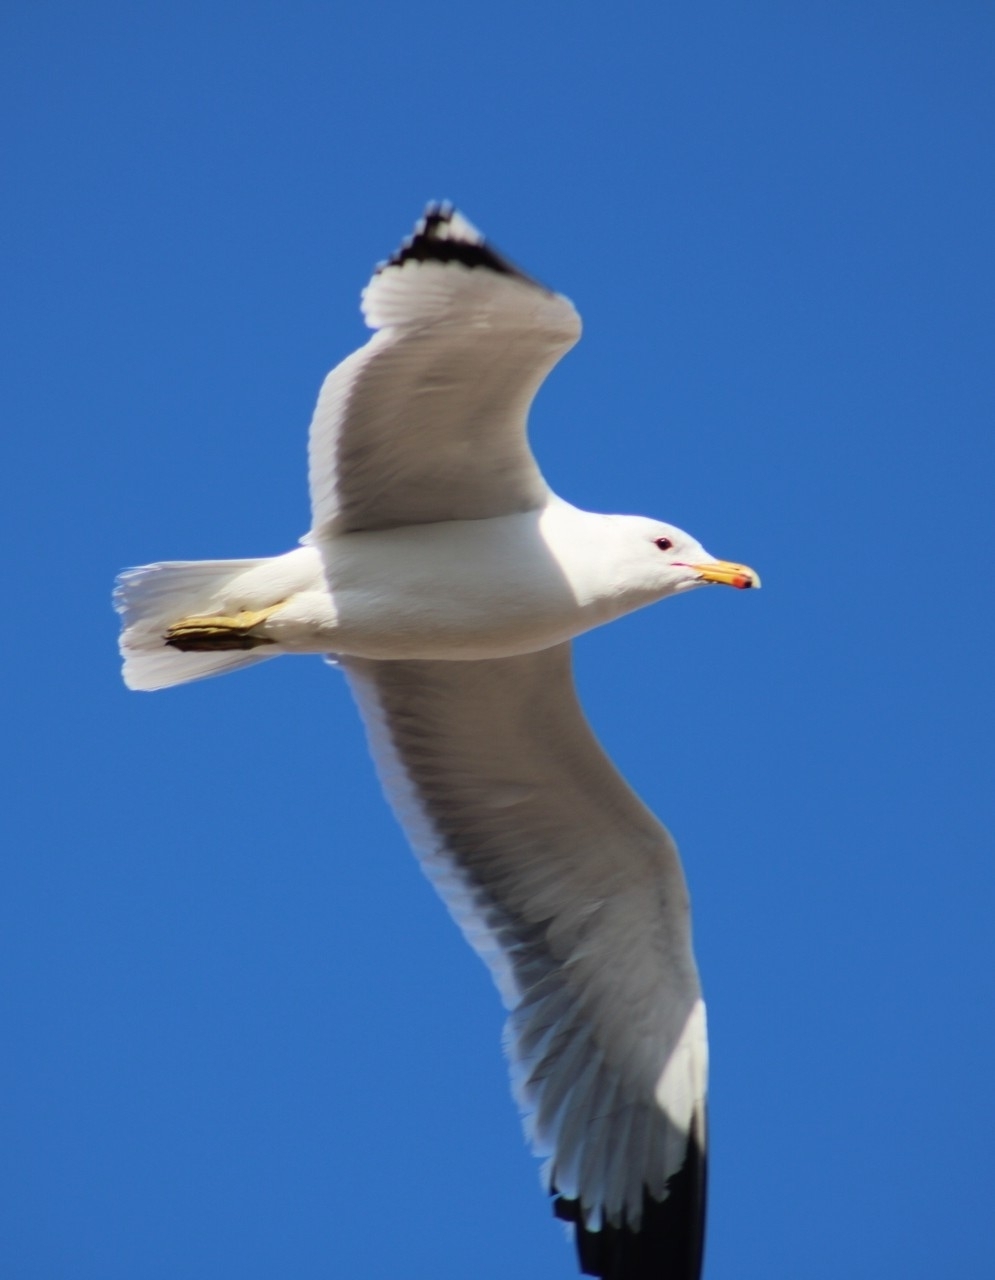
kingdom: Animalia
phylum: Chordata
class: Aves
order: Charadriiformes
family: Laridae
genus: Larus
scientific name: Larus californicus
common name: California gull
